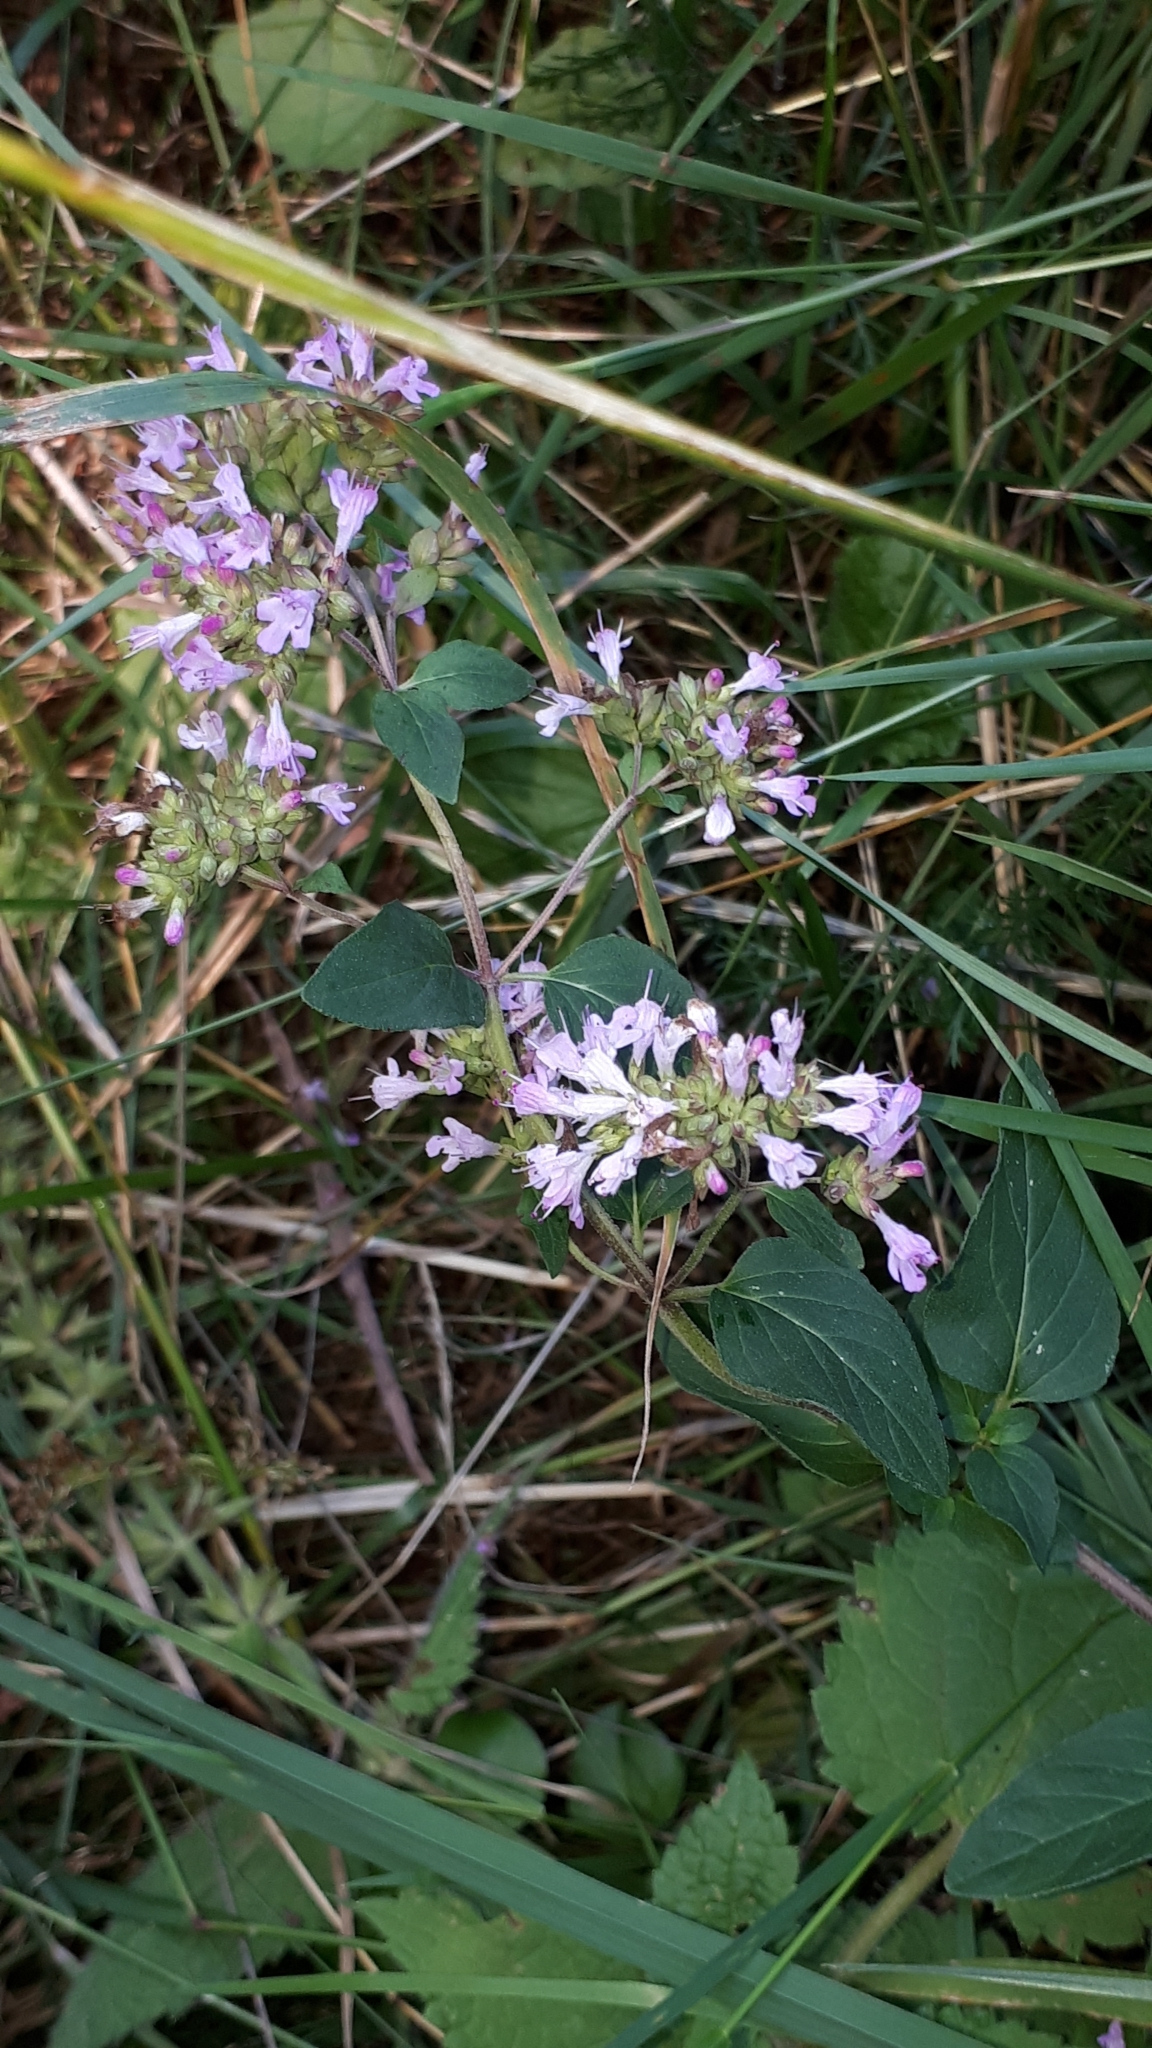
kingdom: Plantae
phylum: Tracheophyta
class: Magnoliopsida
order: Lamiales
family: Lamiaceae
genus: Origanum
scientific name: Origanum vulgare
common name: Wild marjoram
